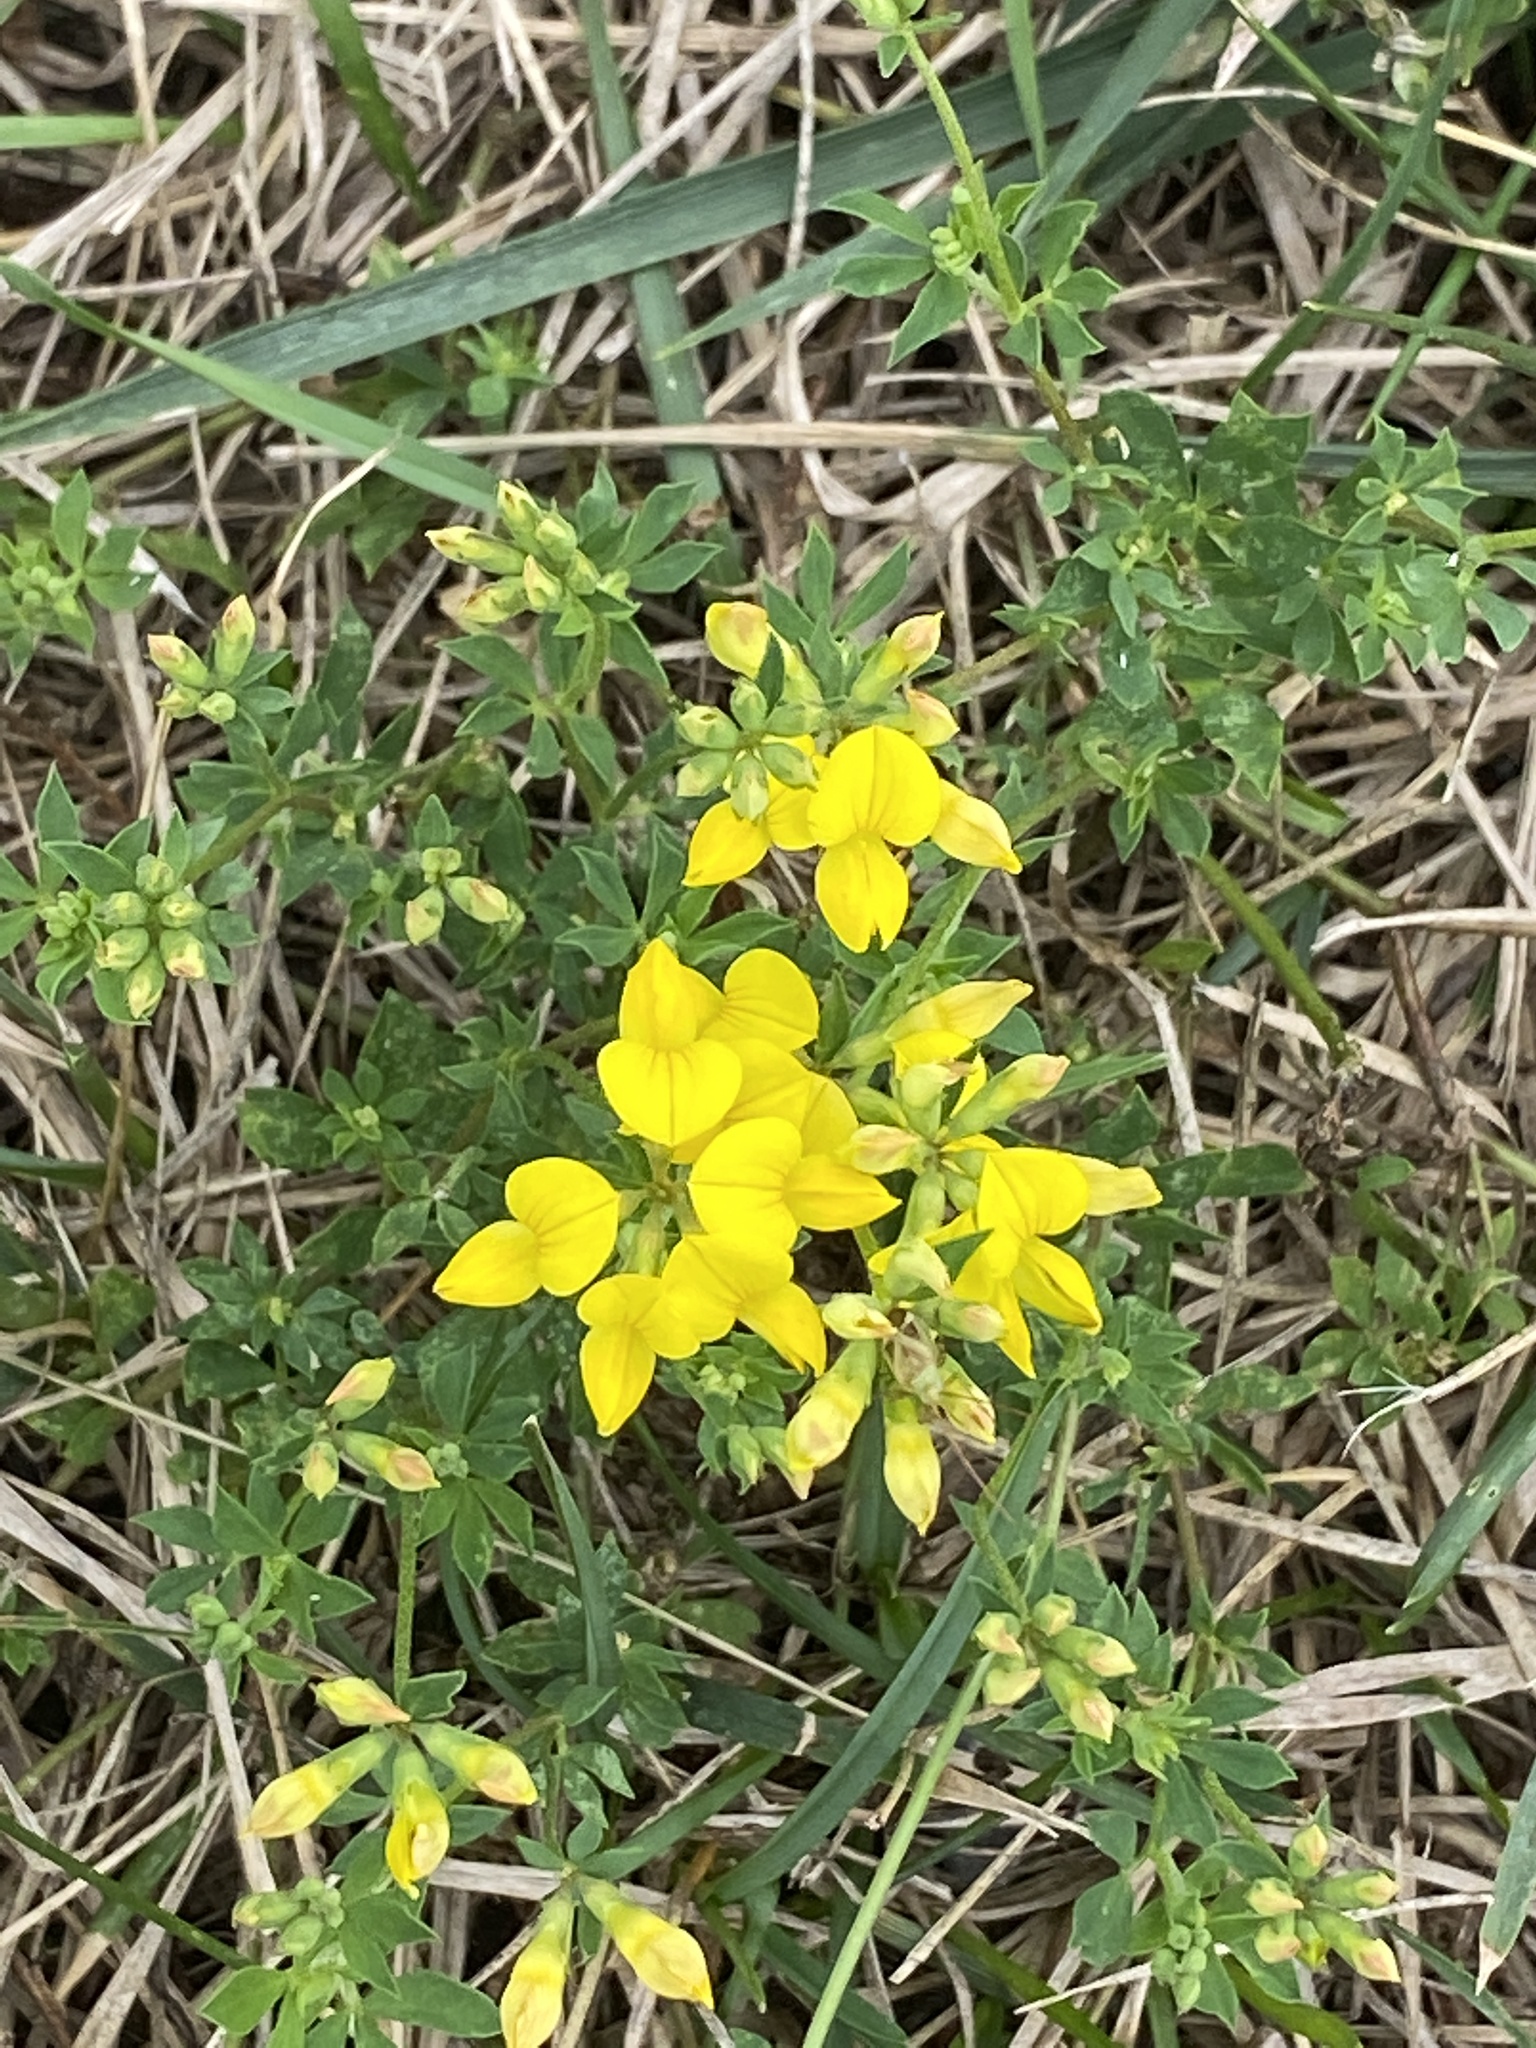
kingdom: Plantae
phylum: Tracheophyta
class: Magnoliopsida
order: Fabales
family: Fabaceae
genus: Lotus
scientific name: Lotus corniculatus
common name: Common bird's-foot-trefoil
